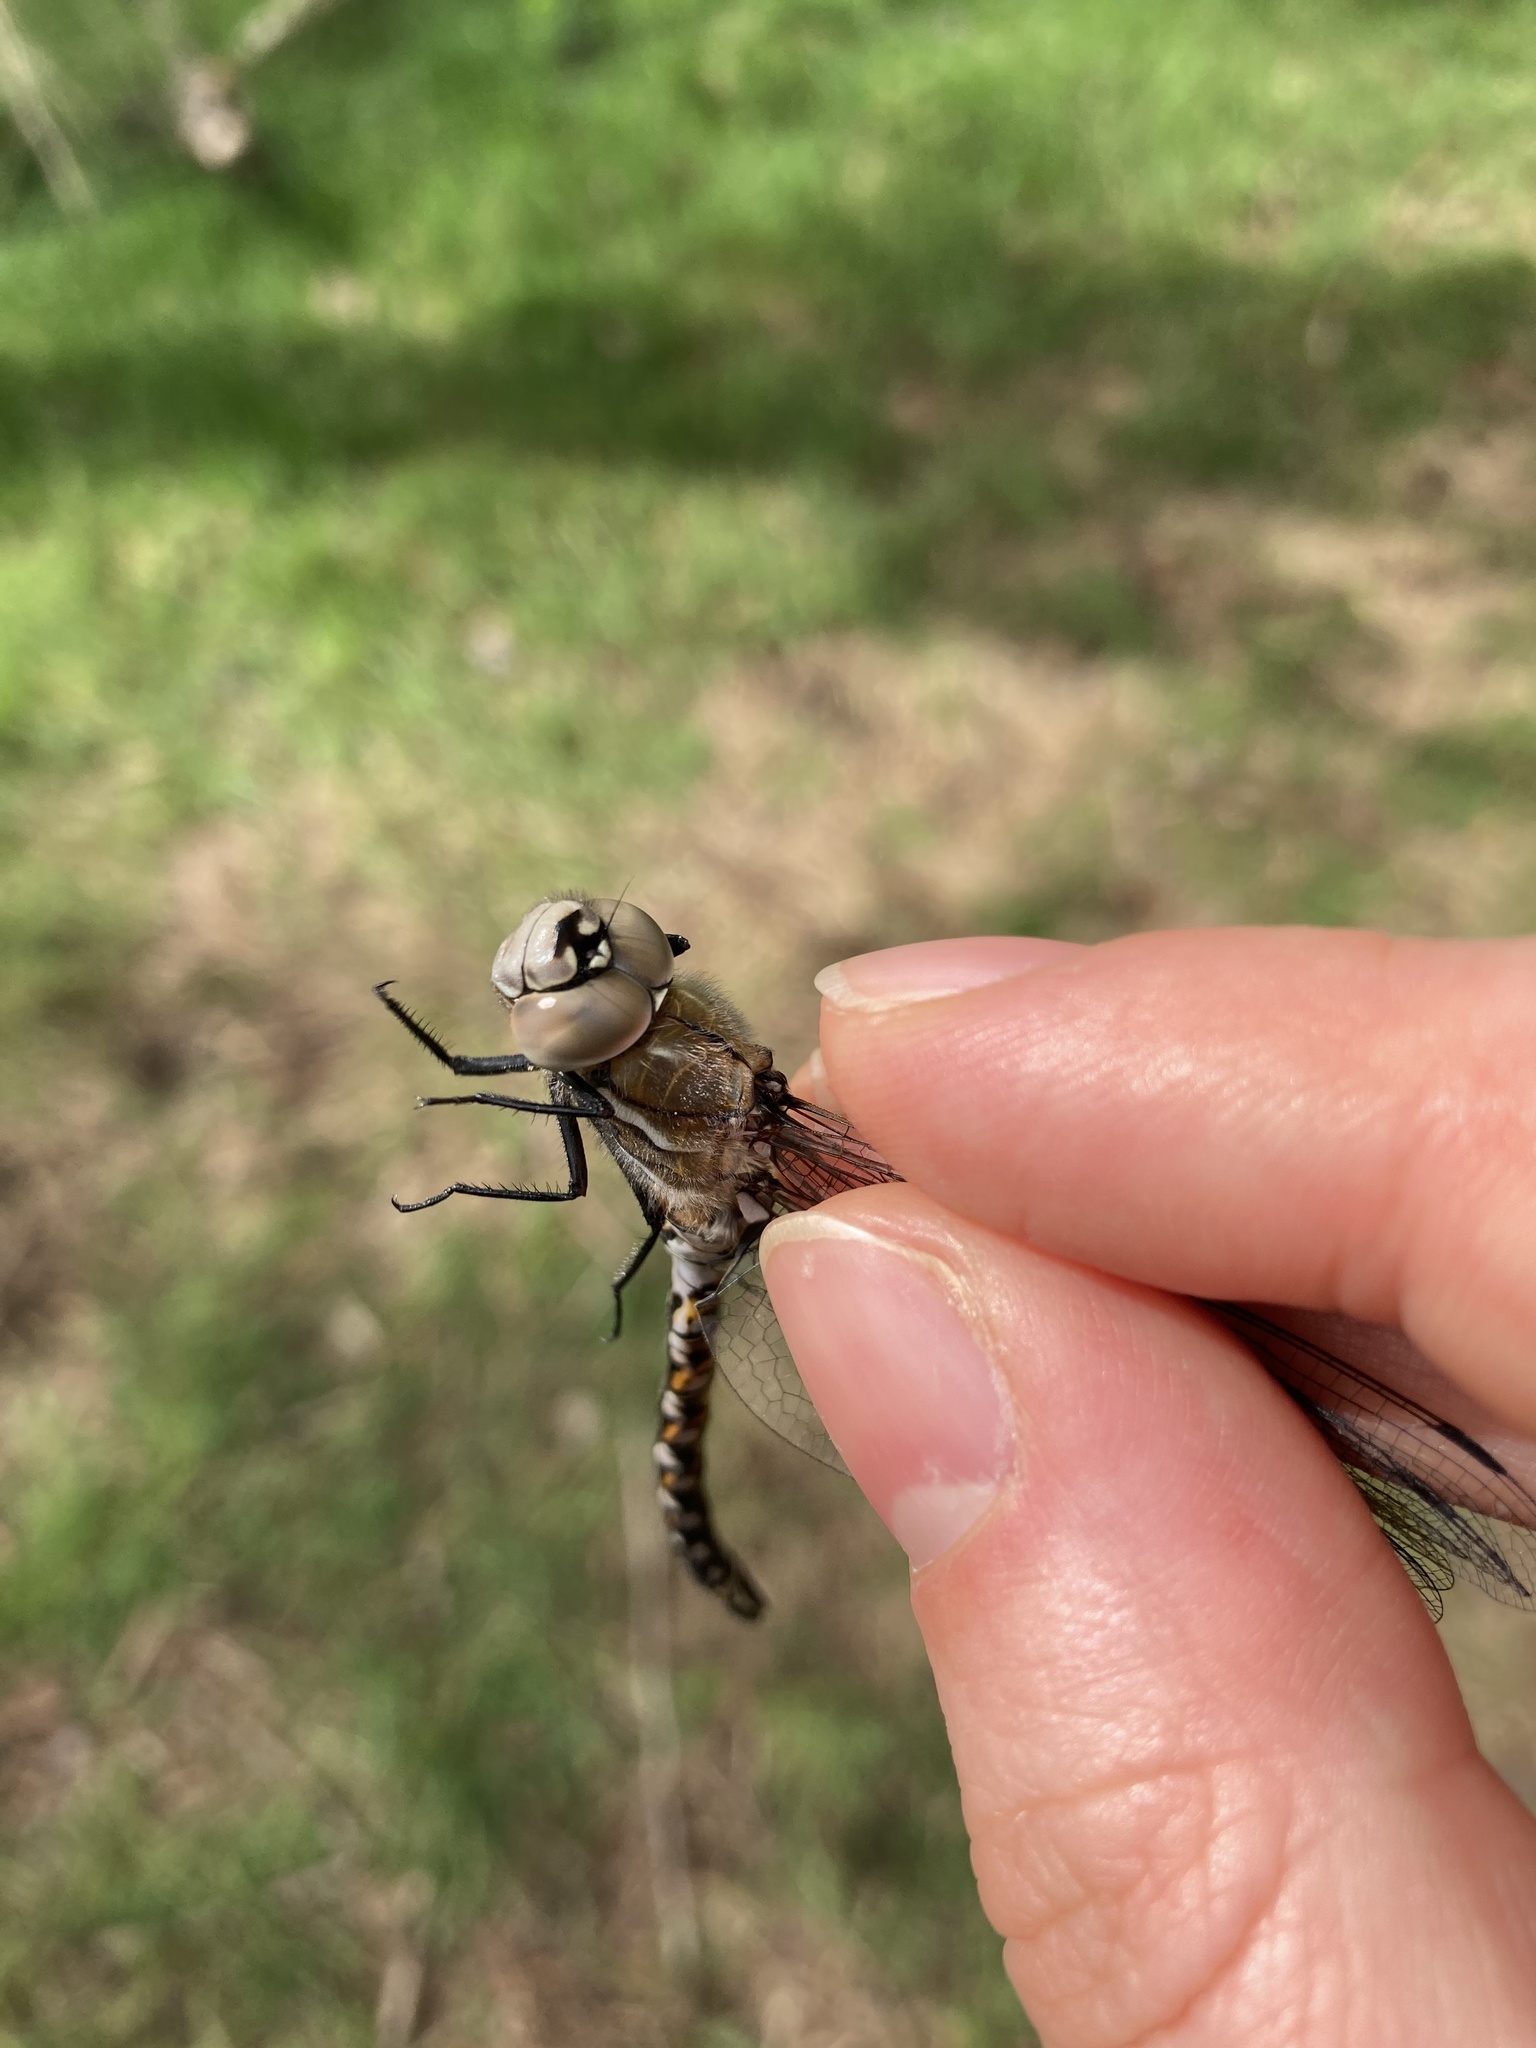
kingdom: Animalia
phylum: Arthropoda
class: Insecta
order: Odonata
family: Aeshnidae
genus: Rhionaeschna
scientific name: Rhionaeschna californica
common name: California darner
